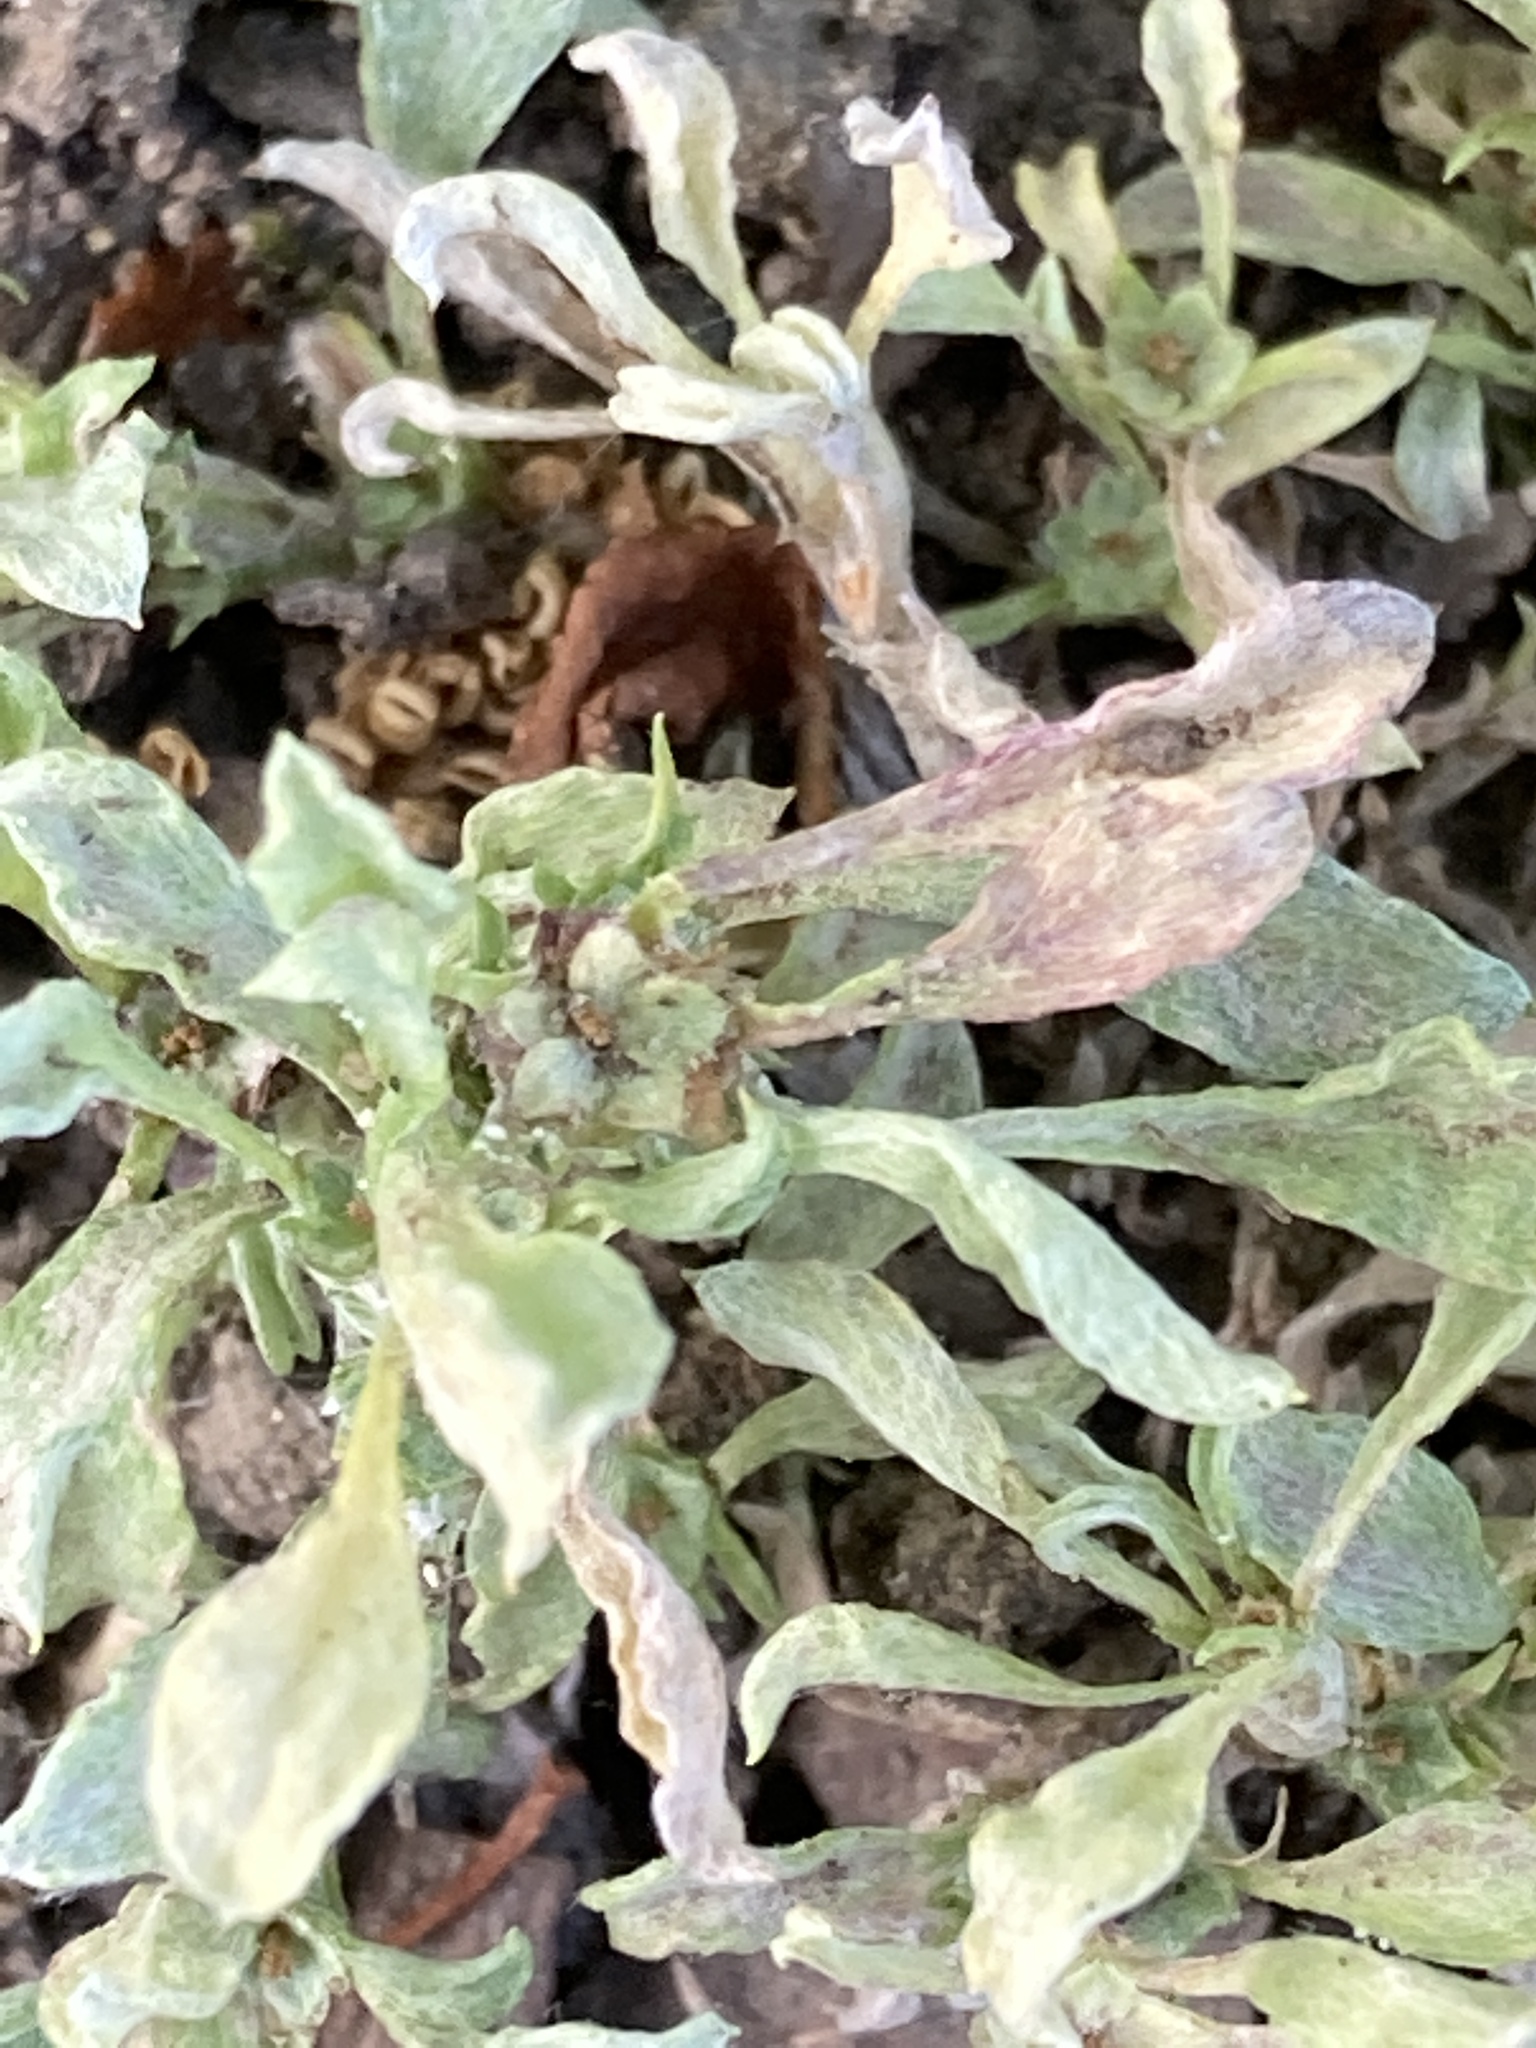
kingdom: Plantae
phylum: Tracheophyta
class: Magnoliopsida
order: Asterales
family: Asteraceae
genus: Hesperevax
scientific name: Hesperevax sparsiflora
